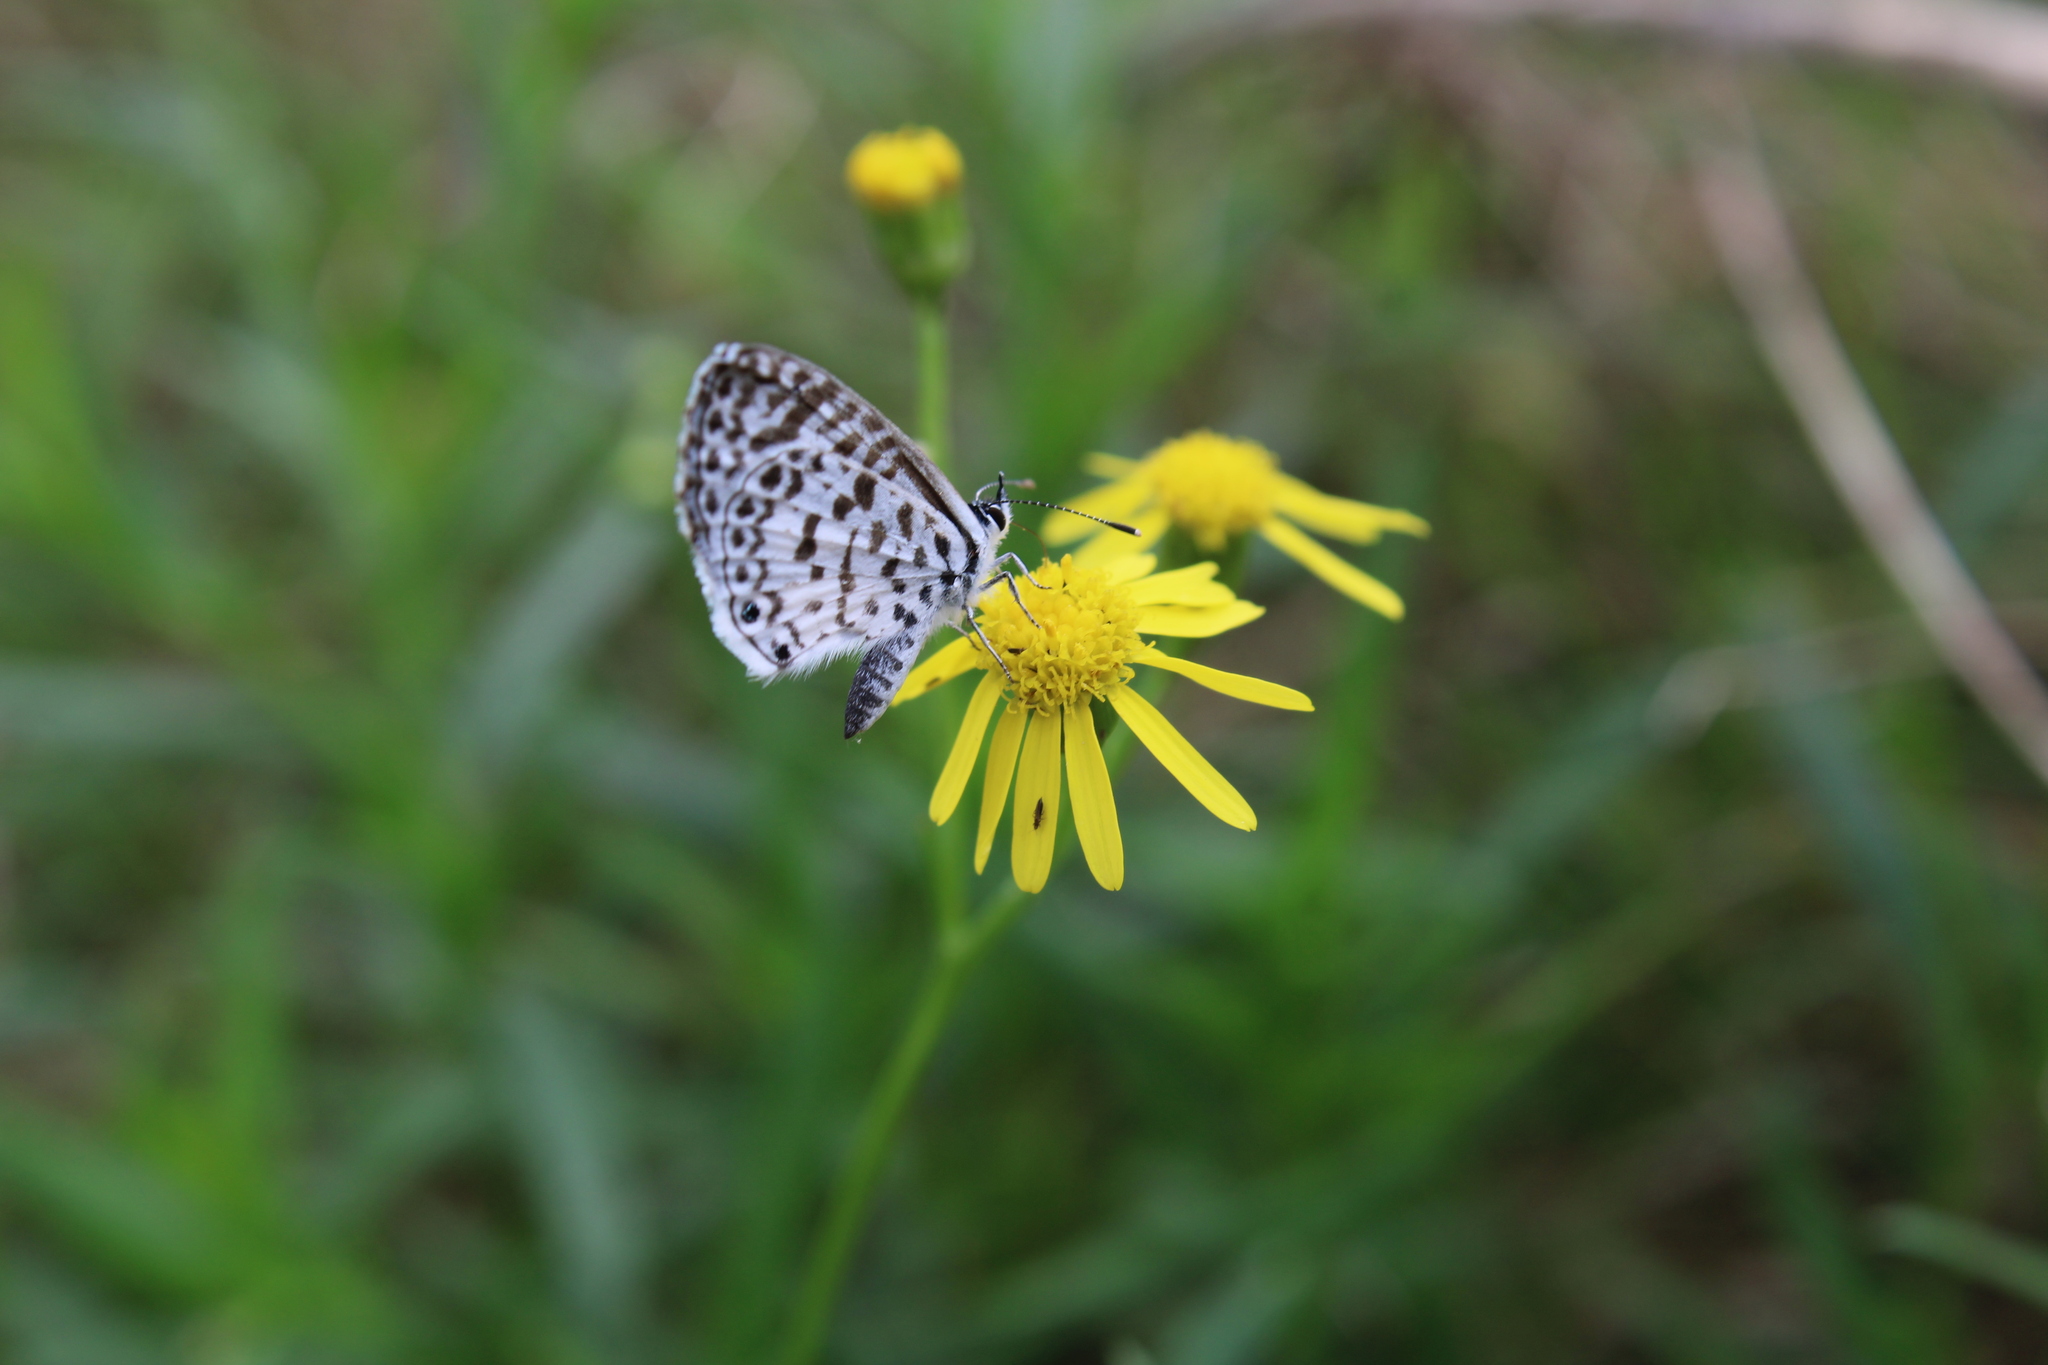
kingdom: Animalia
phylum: Arthropoda
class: Insecta
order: Lepidoptera
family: Lycaenidae
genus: Leptotes
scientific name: Leptotes cassius
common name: Cassius blue
